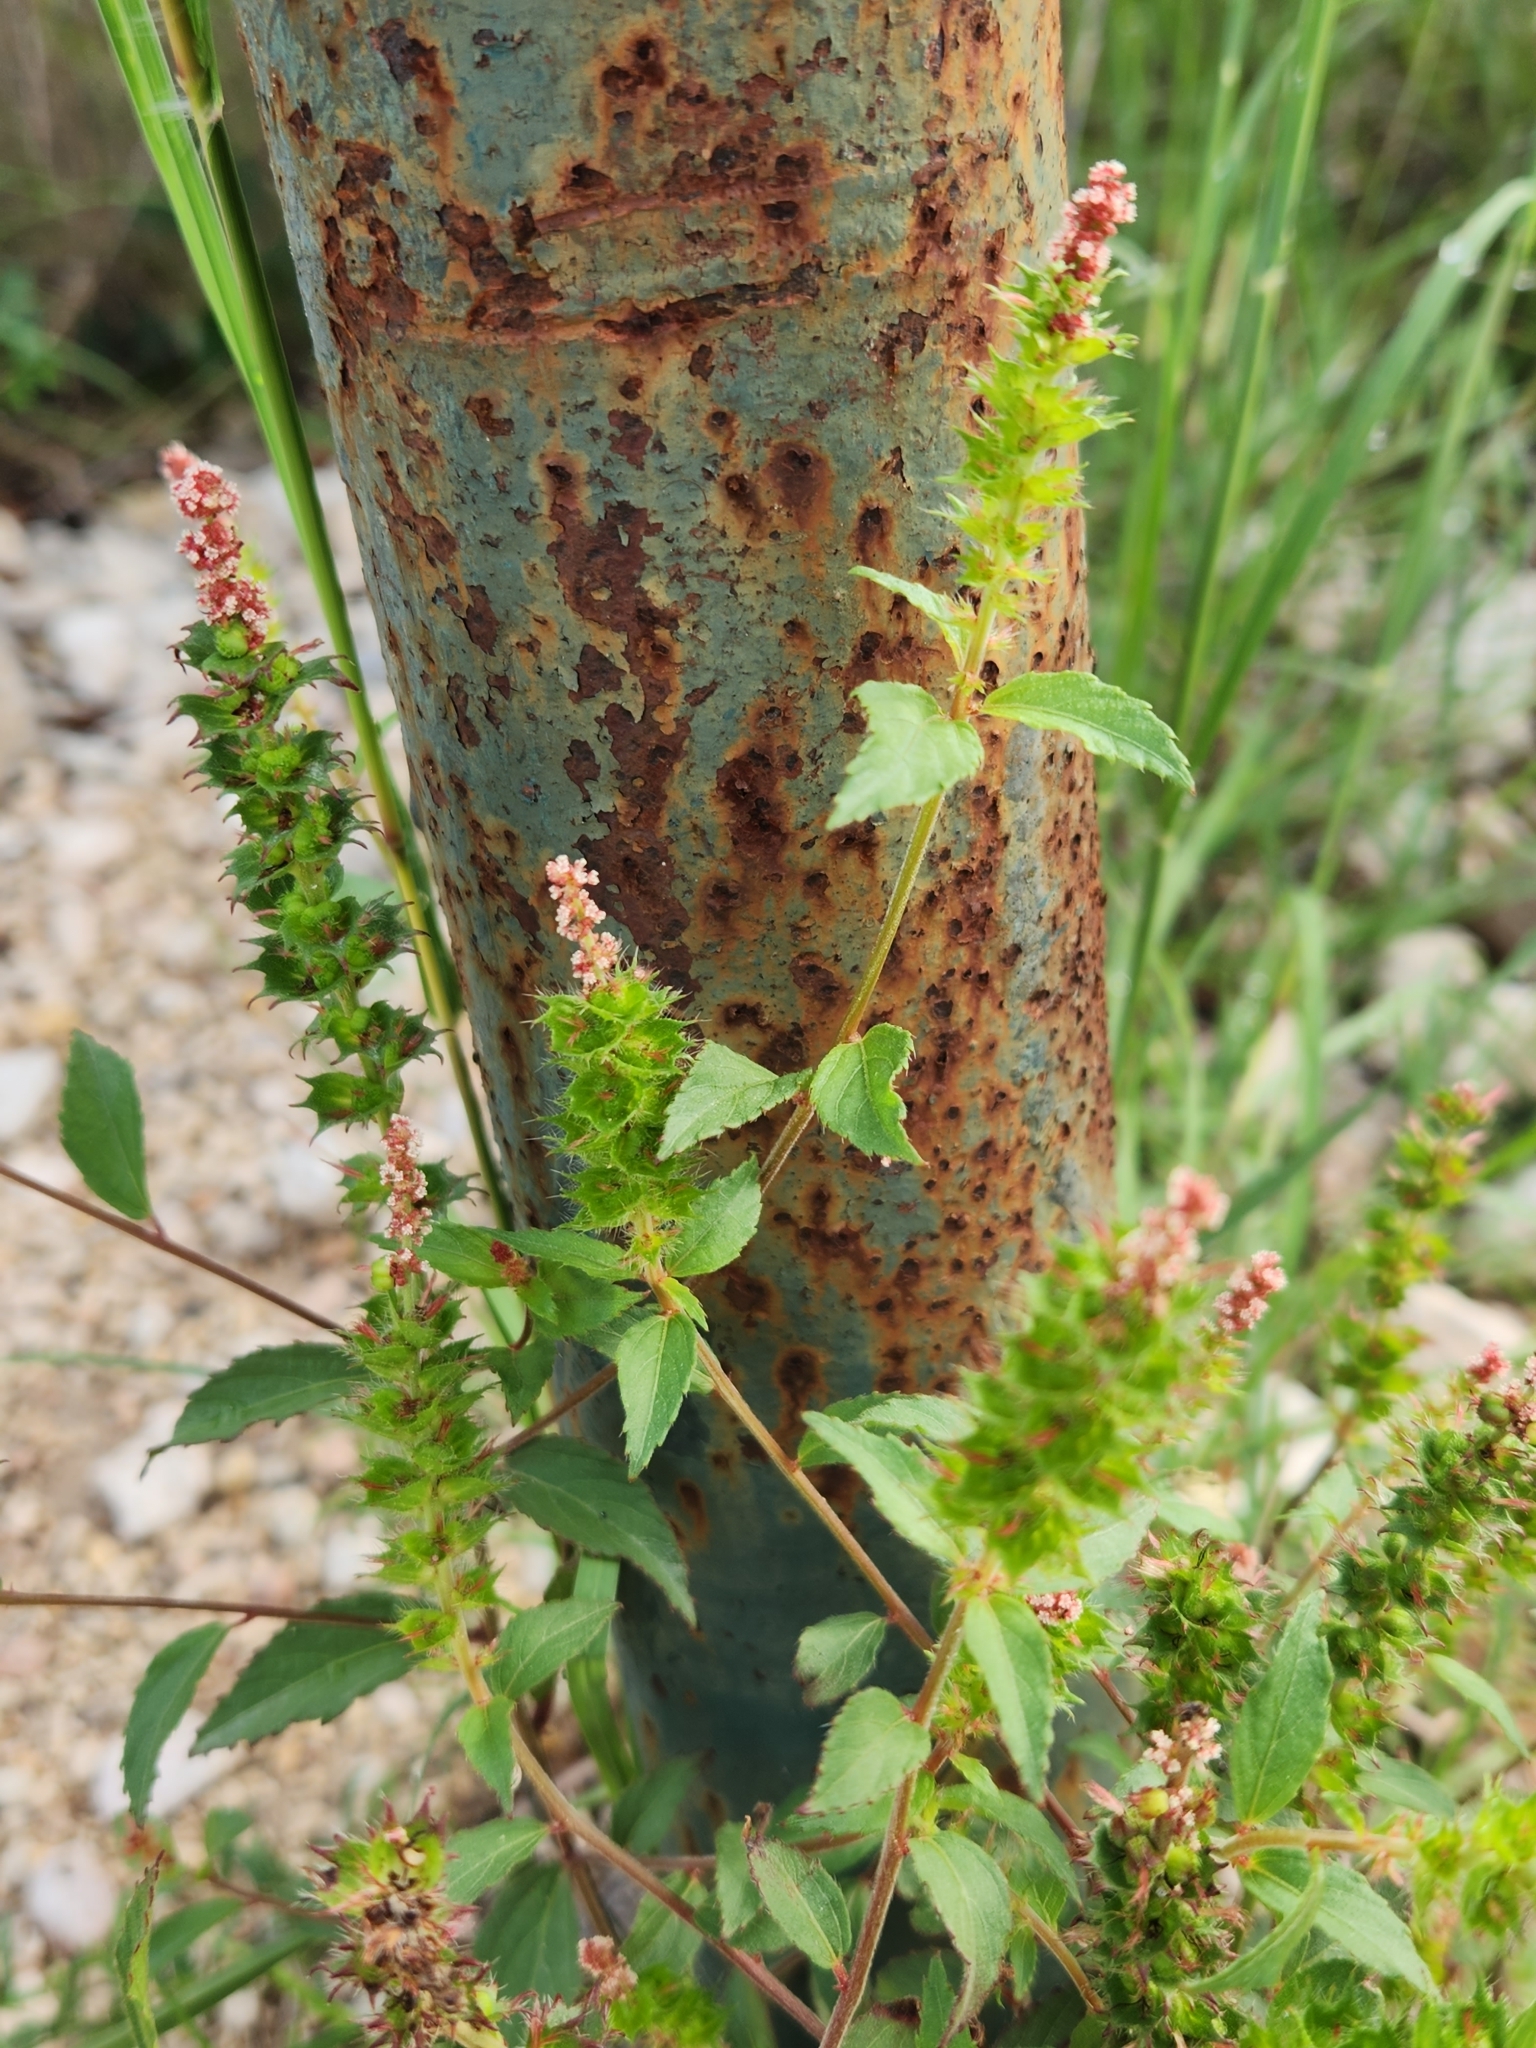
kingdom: Plantae
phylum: Tracheophyta
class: Magnoliopsida
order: Malpighiales
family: Euphorbiaceae
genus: Acalypha
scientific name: Acalypha phleoides
